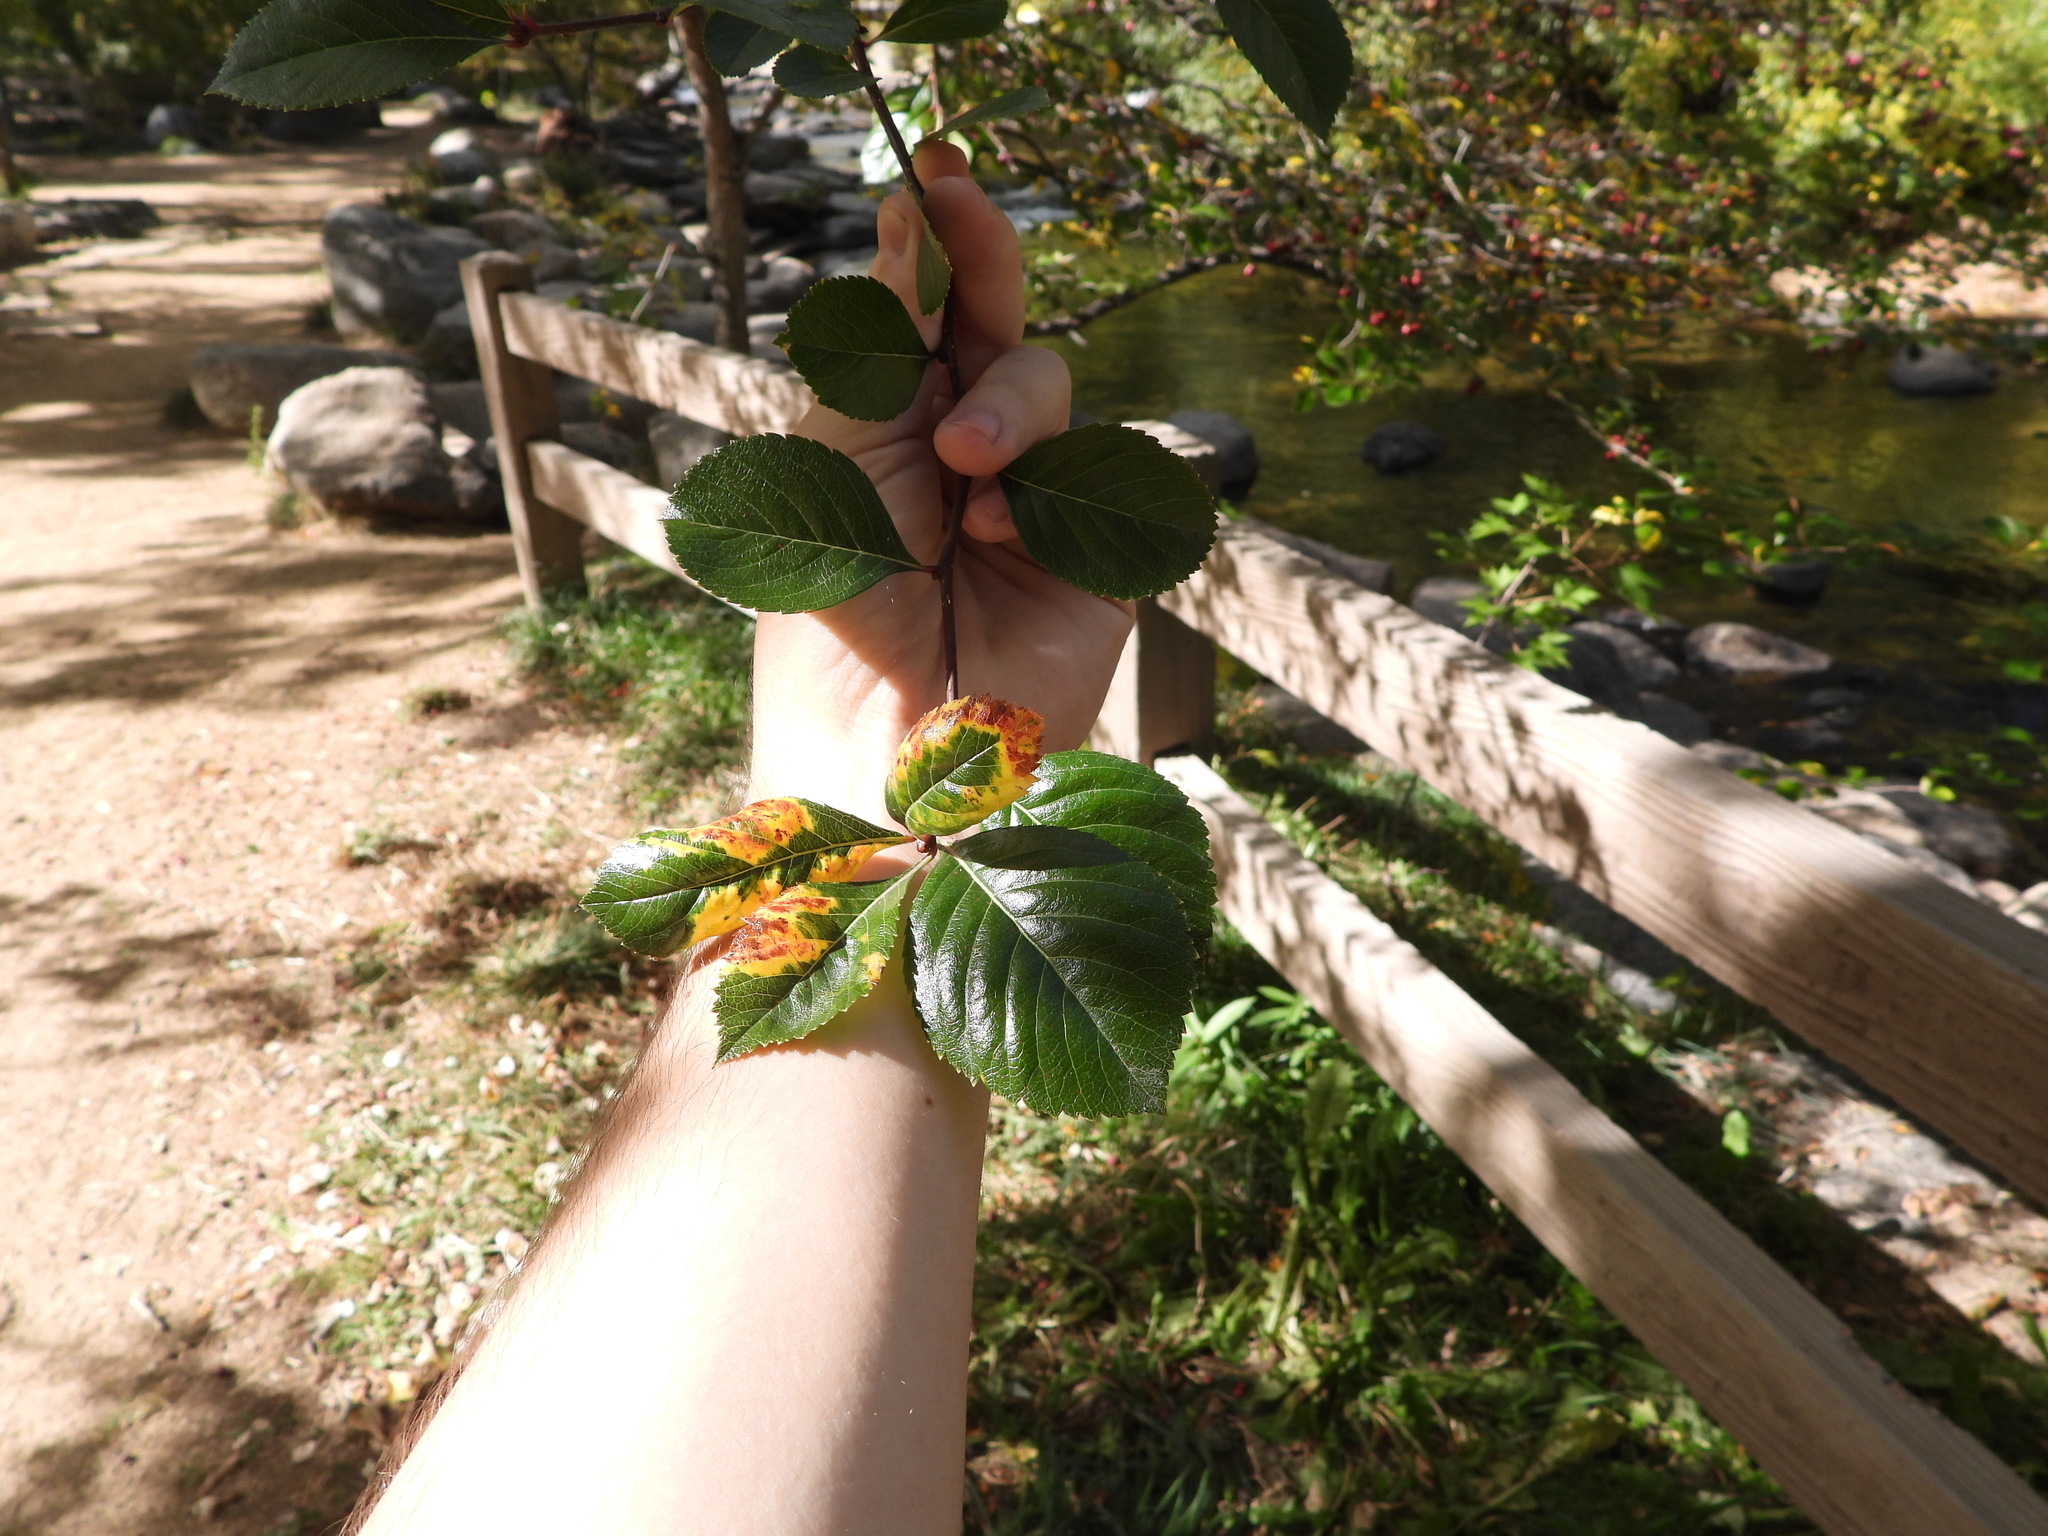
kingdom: Plantae
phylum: Tracheophyta
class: Magnoliopsida
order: Rosales
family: Rosaceae
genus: Malus
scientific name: Malus
